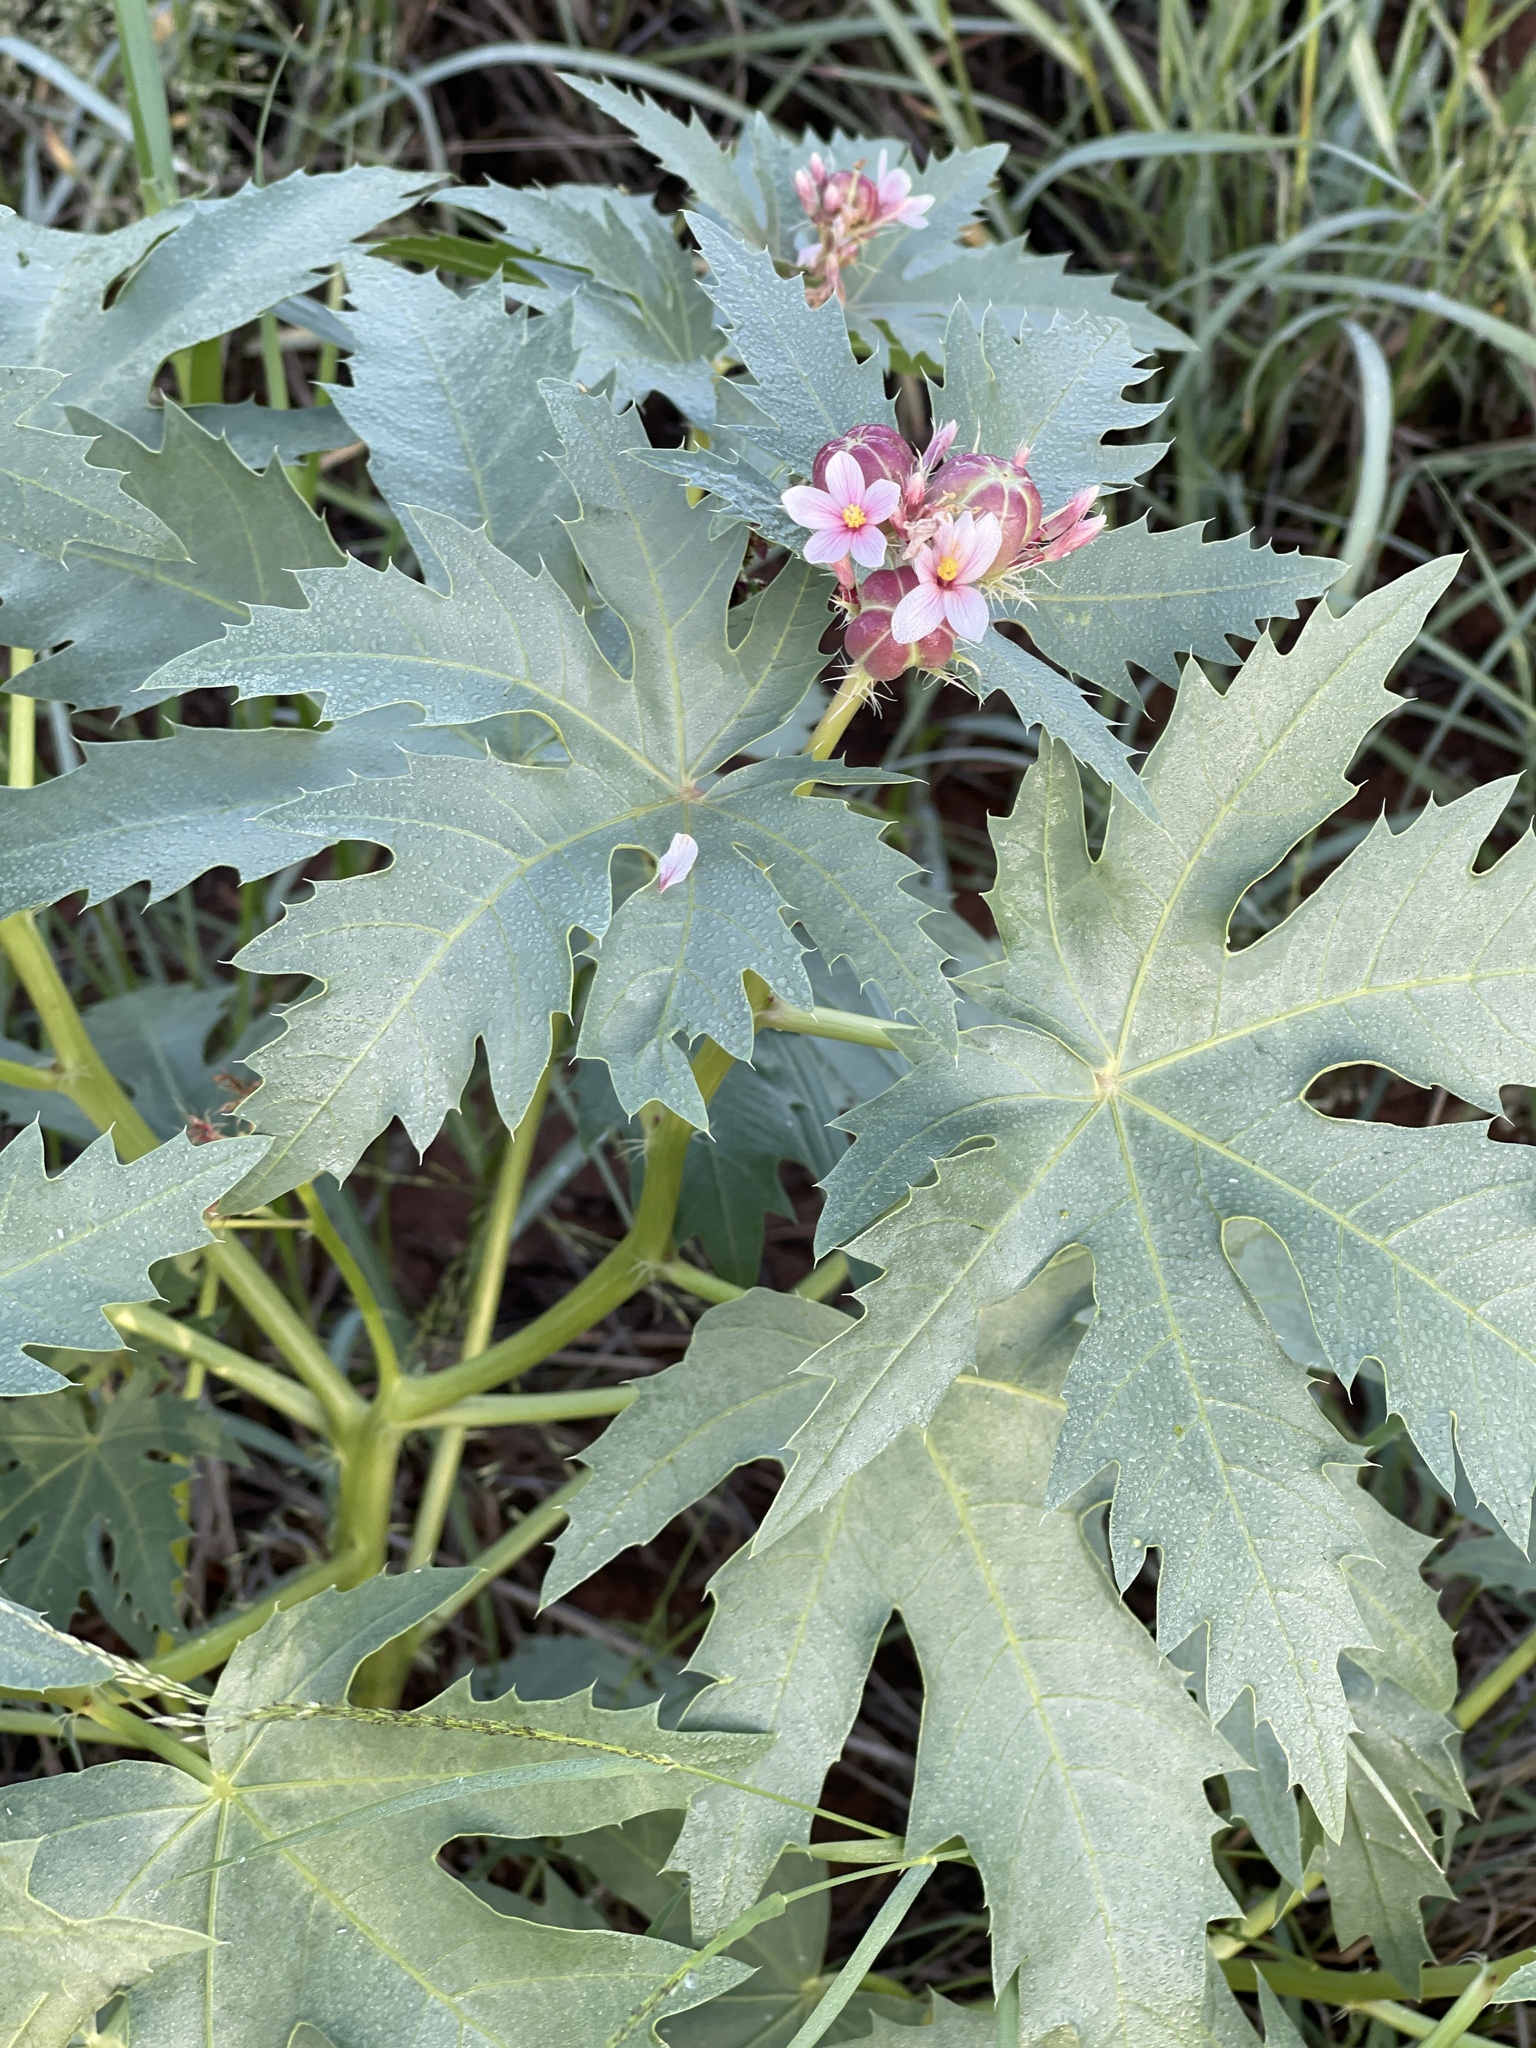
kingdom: Plantae
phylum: Tracheophyta
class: Magnoliopsida
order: Malpighiales
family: Euphorbiaceae
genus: Jatropha
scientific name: Jatropha macrorhiza
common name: Ragged nettlespurge
